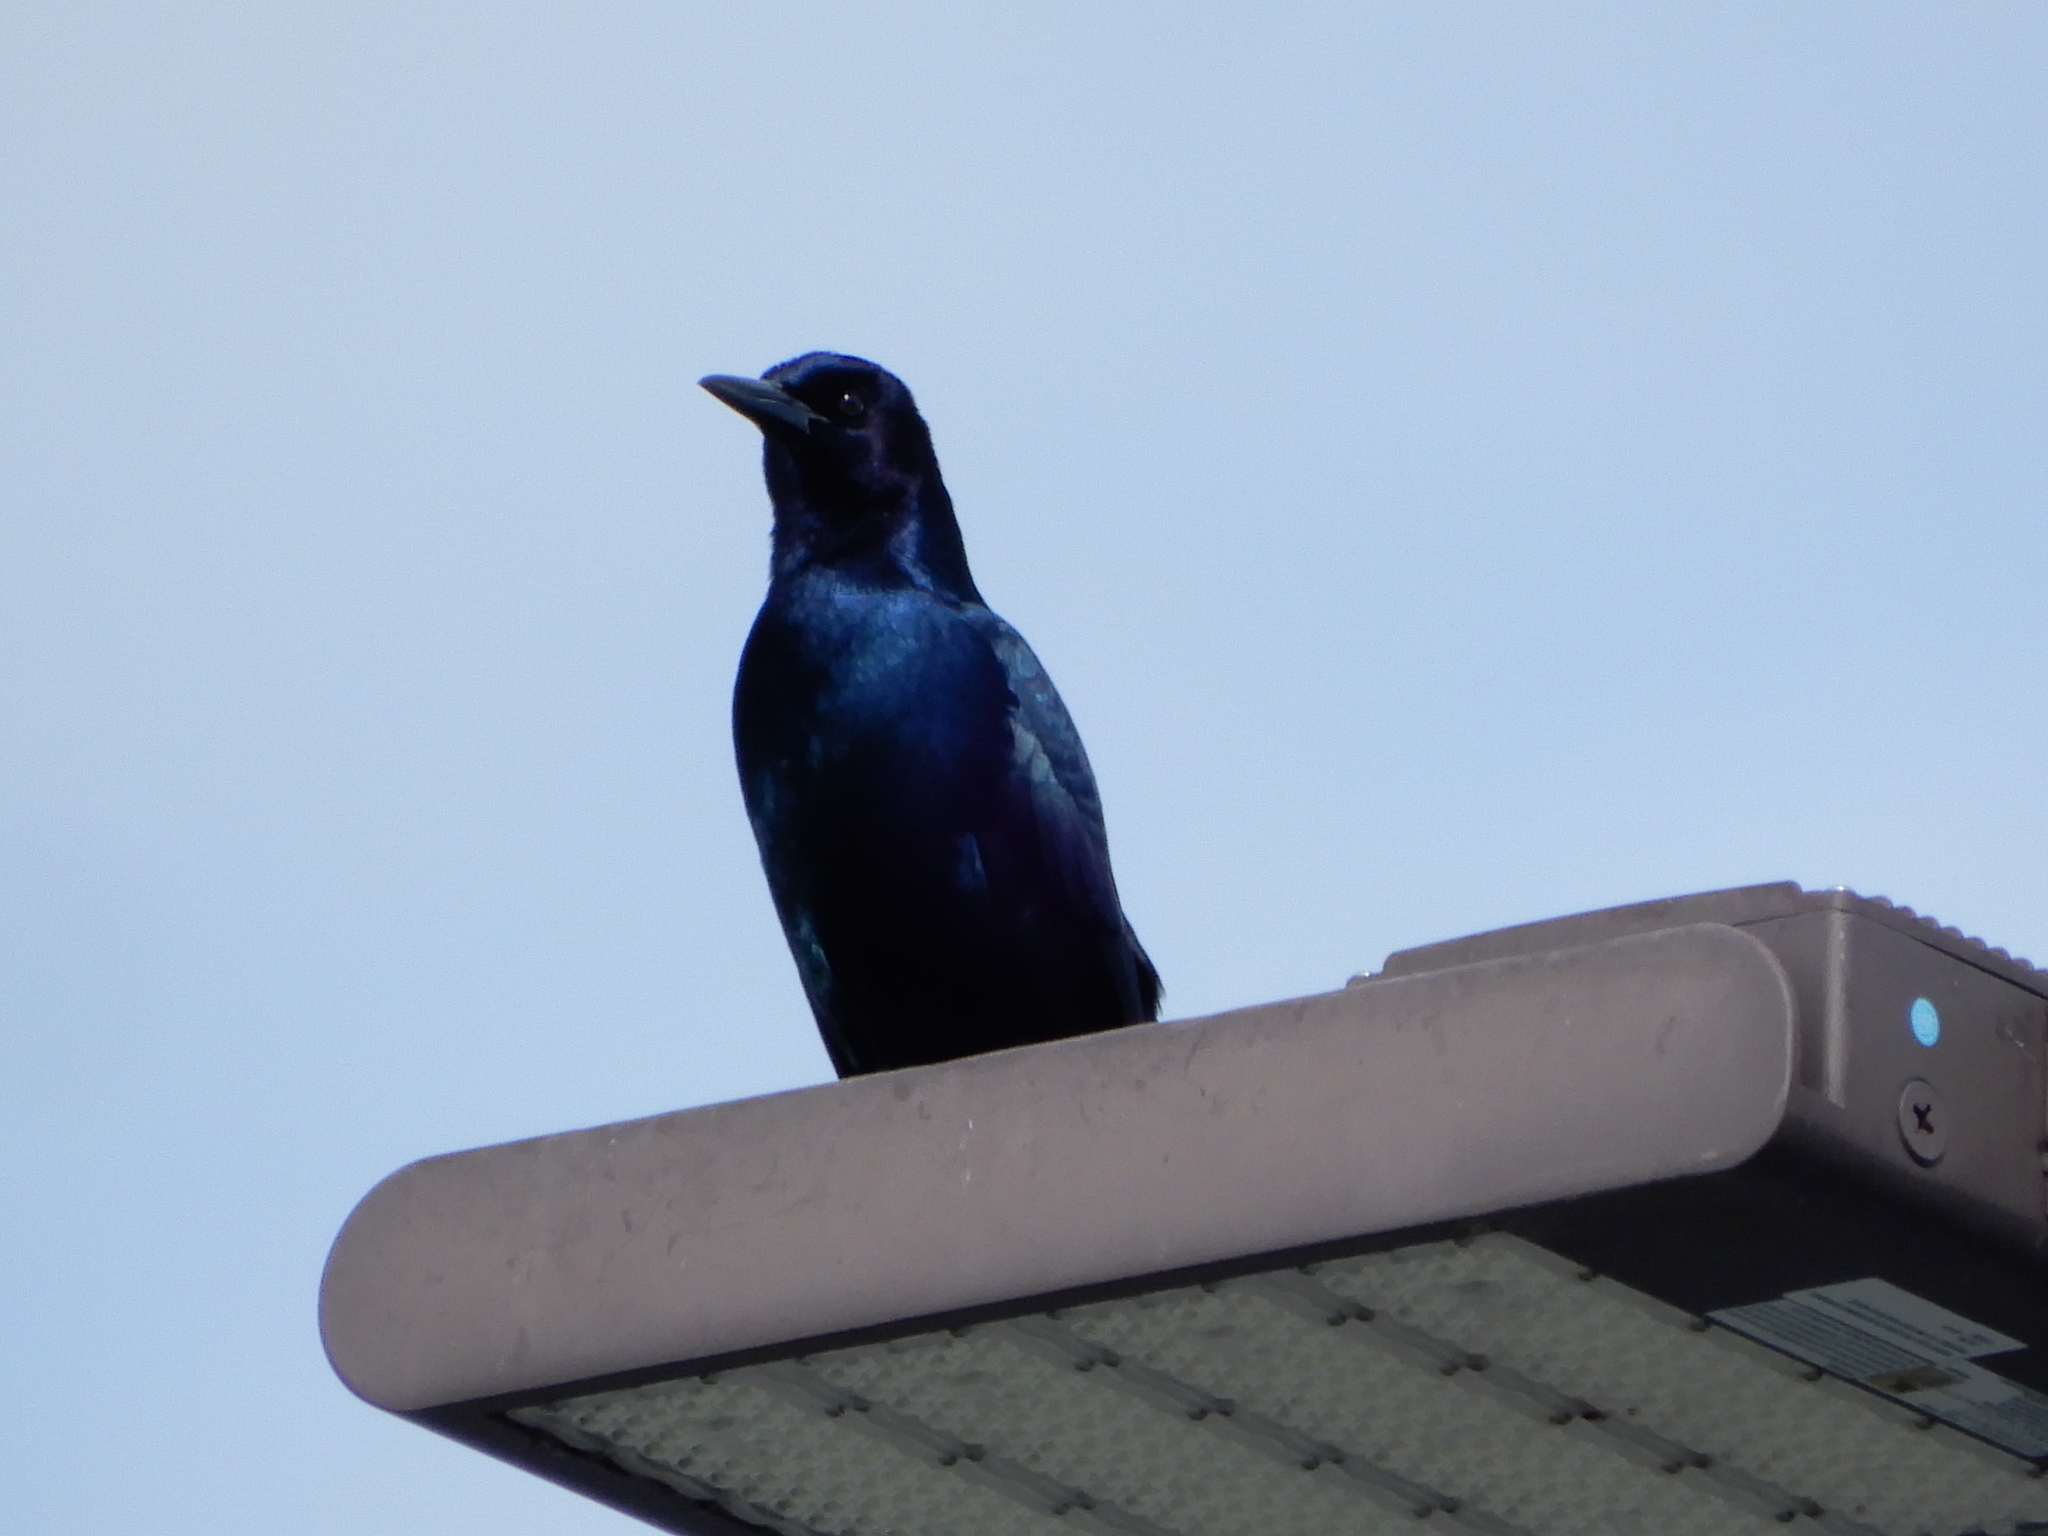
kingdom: Animalia
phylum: Chordata
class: Aves
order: Passeriformes
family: Icteridae
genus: Quiscalus
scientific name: Quiscalus major
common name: Boat-tailed grackle
